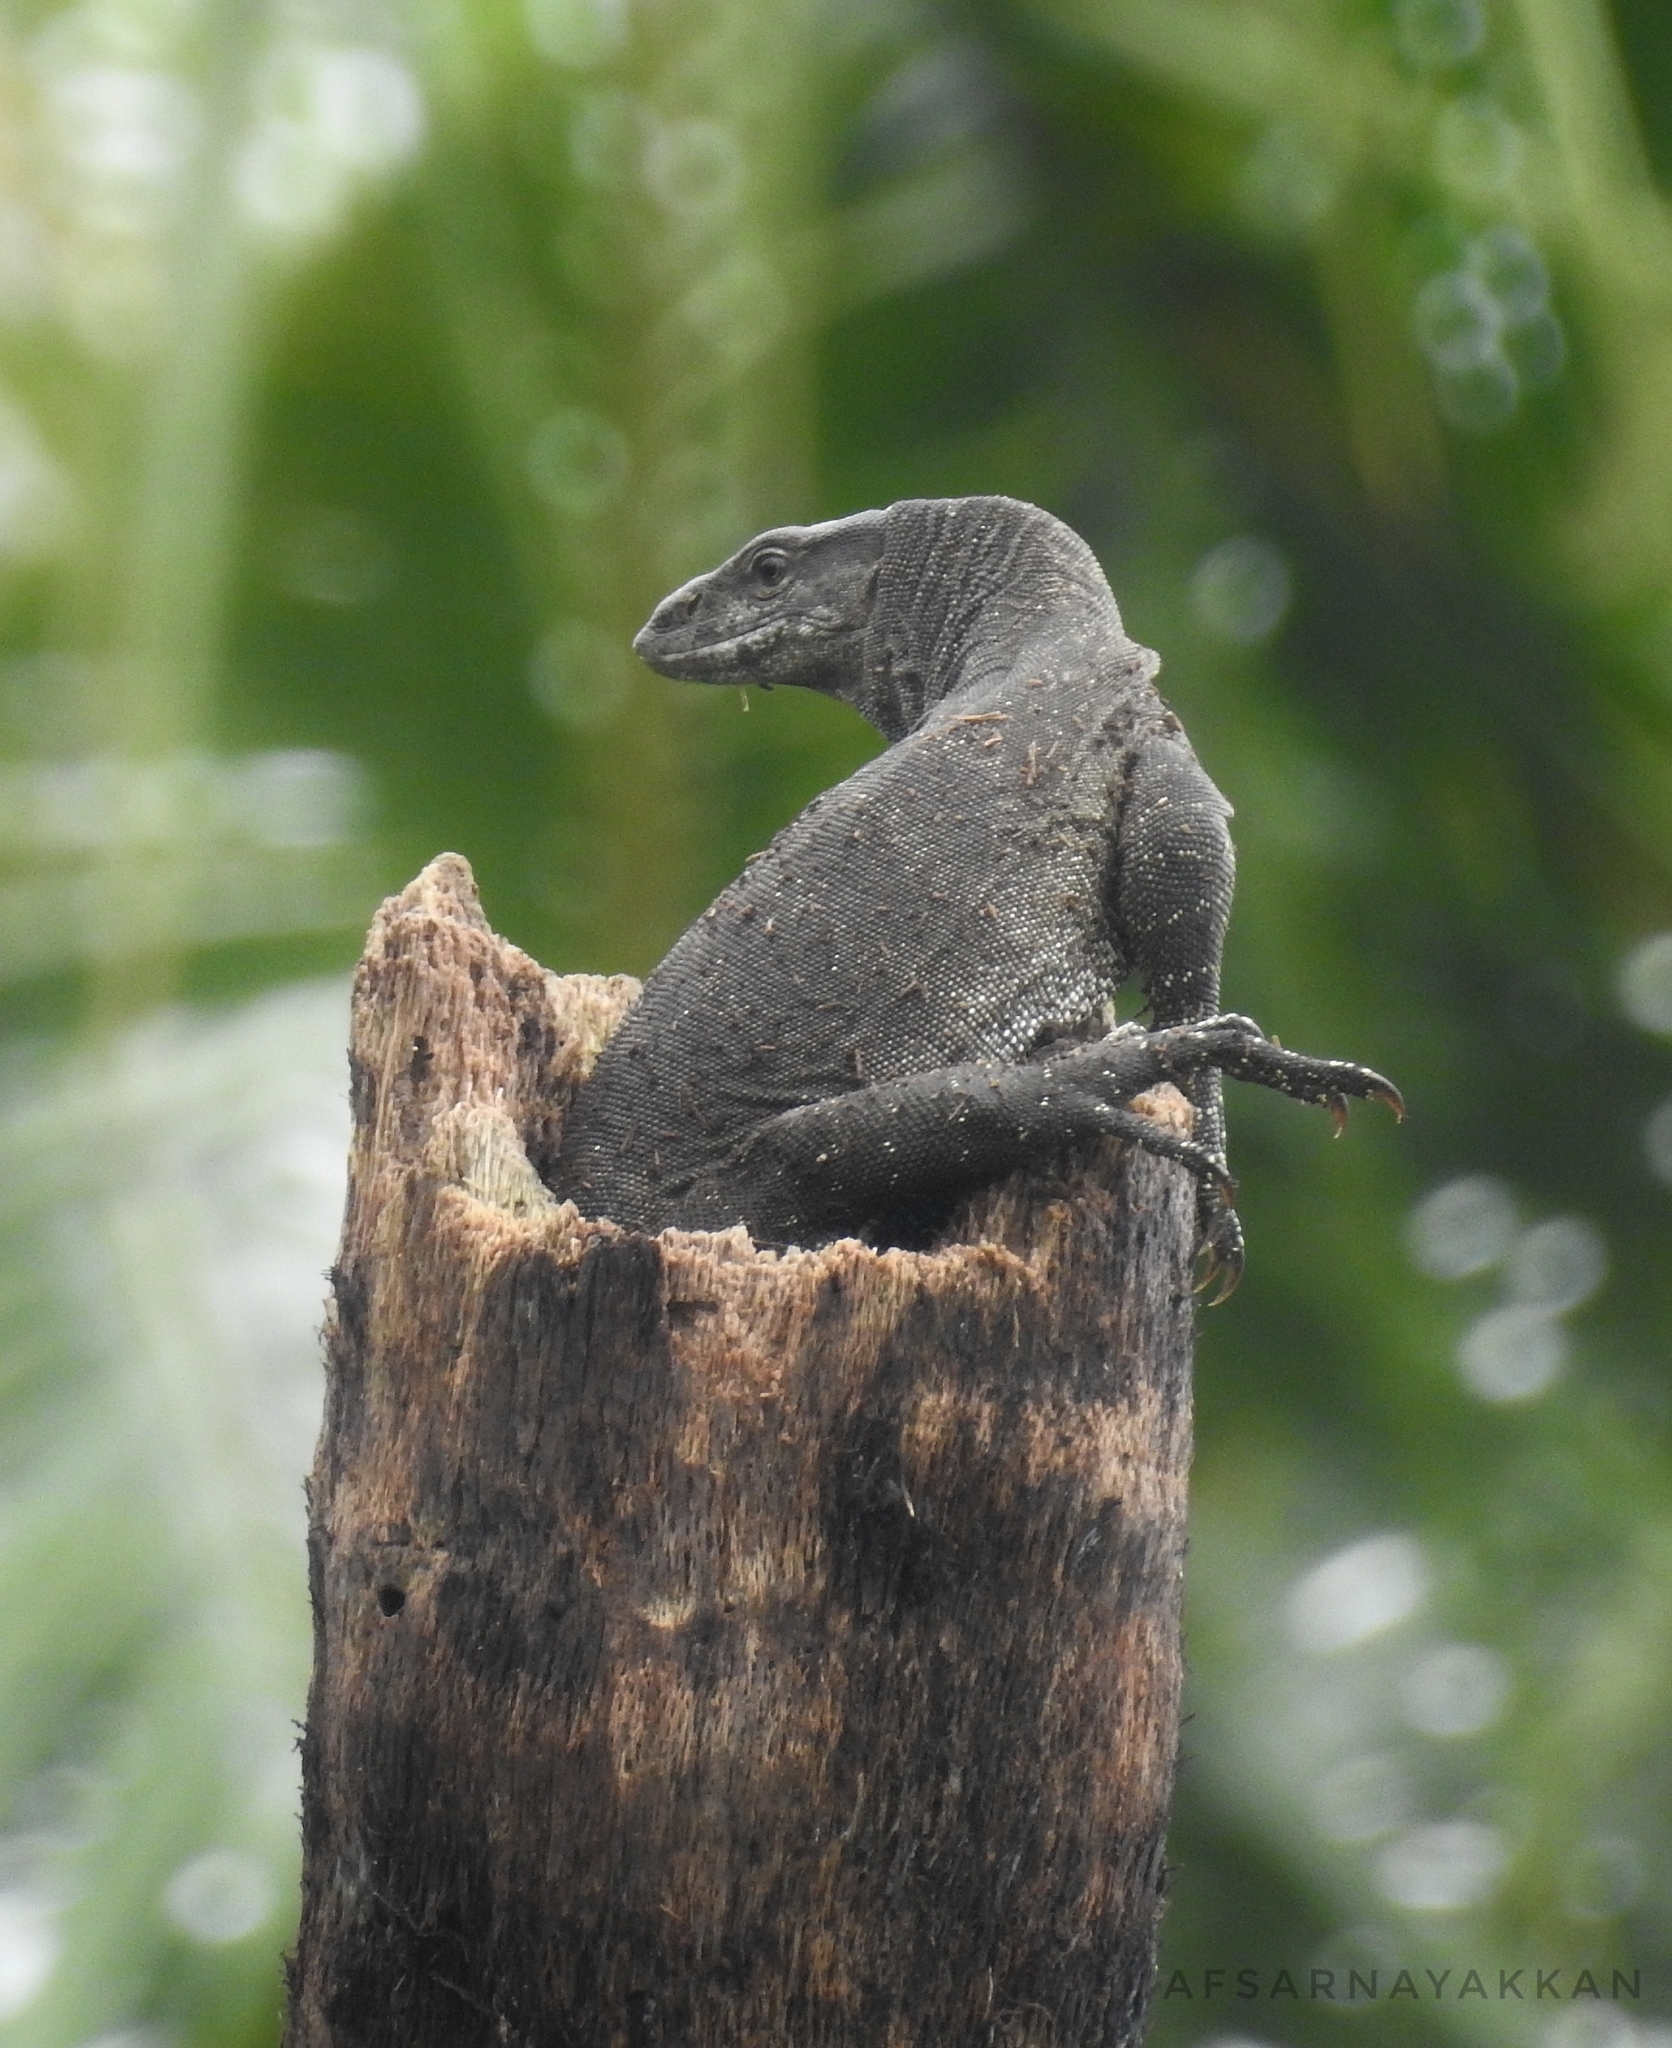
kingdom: Animalia
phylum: Chordata
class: Squamata
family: Varanidae
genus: Varanus
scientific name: Varanus bengalensis
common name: Bengal monitor
